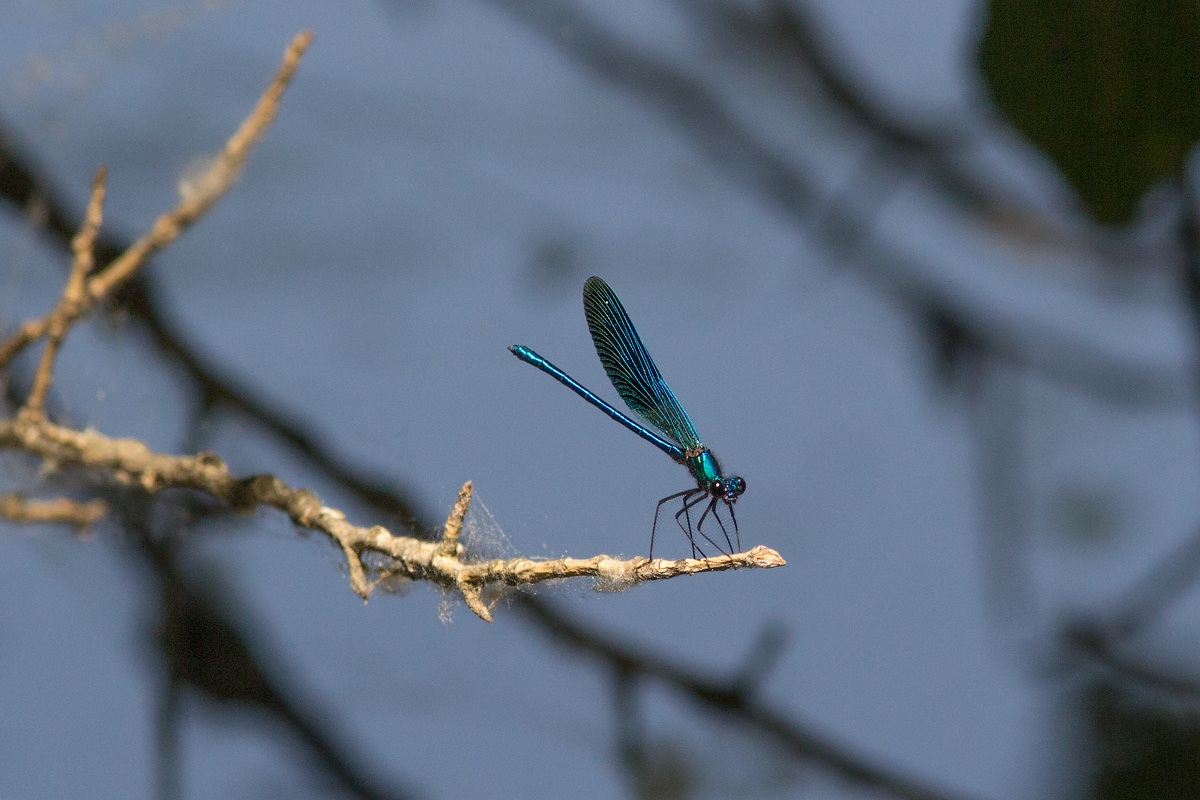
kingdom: Animalia
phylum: Arthropoda
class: Insecta
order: Odonata
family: Calopterygidae
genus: Calopteryx
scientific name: Calopteryx splendens
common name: Banded demoiselle
